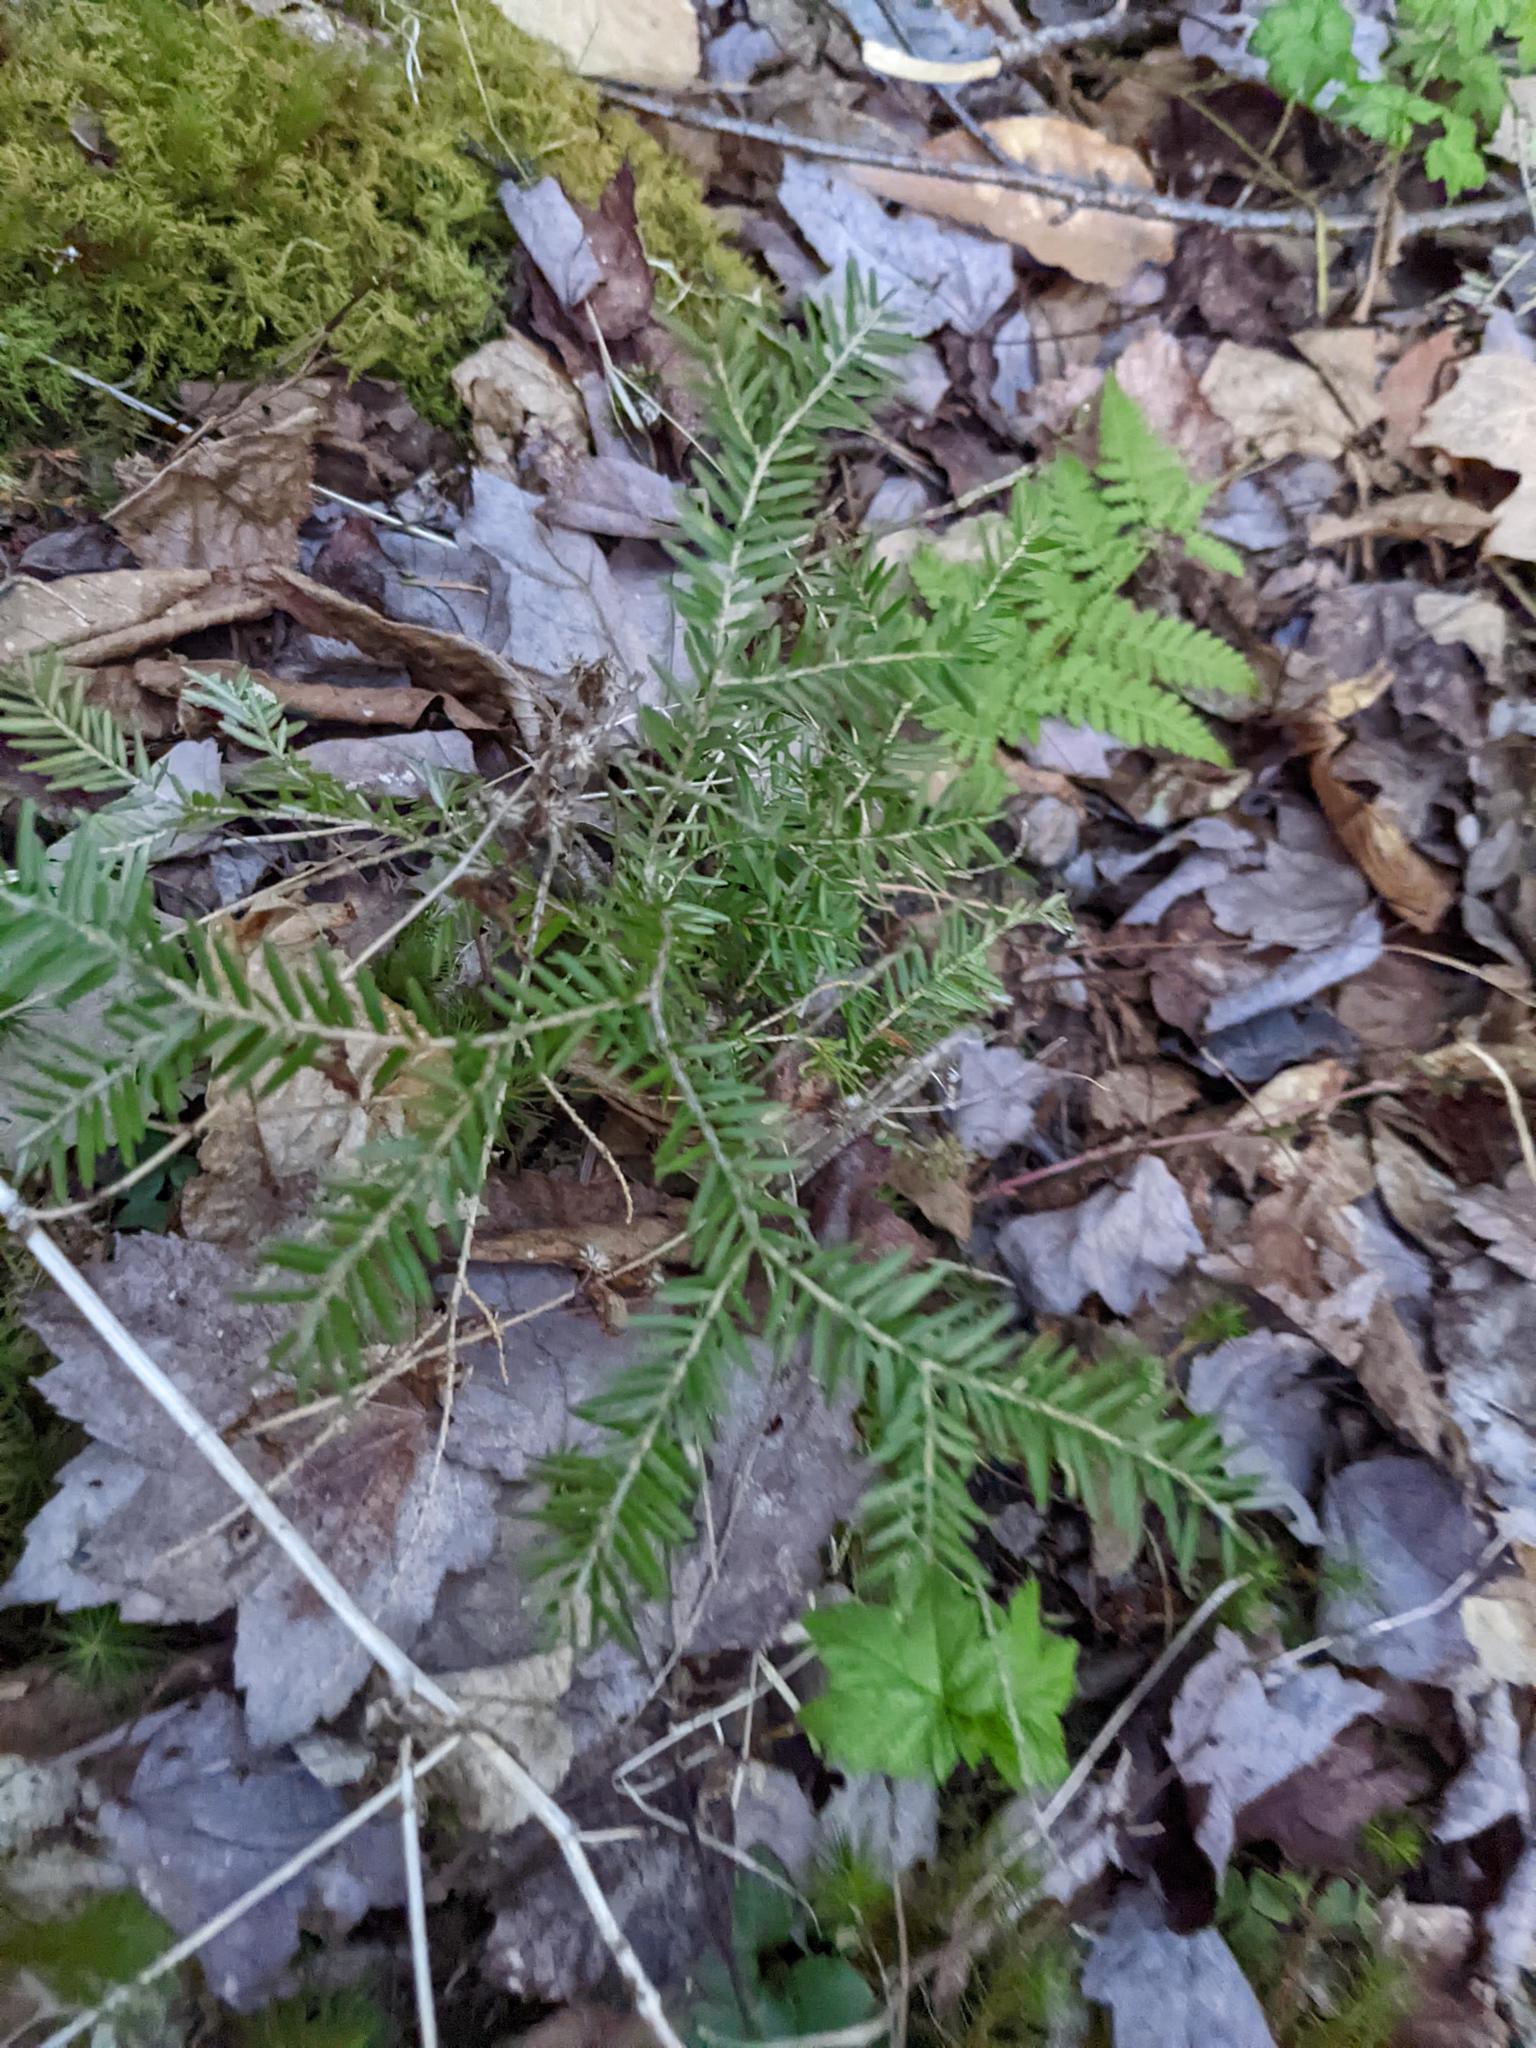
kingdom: Plantae
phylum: Tracheophyta
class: Pinopsida
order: Pinales
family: Pinaceae
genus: Tsuga
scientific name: Tsuga canadensis
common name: Eastern hemlock
